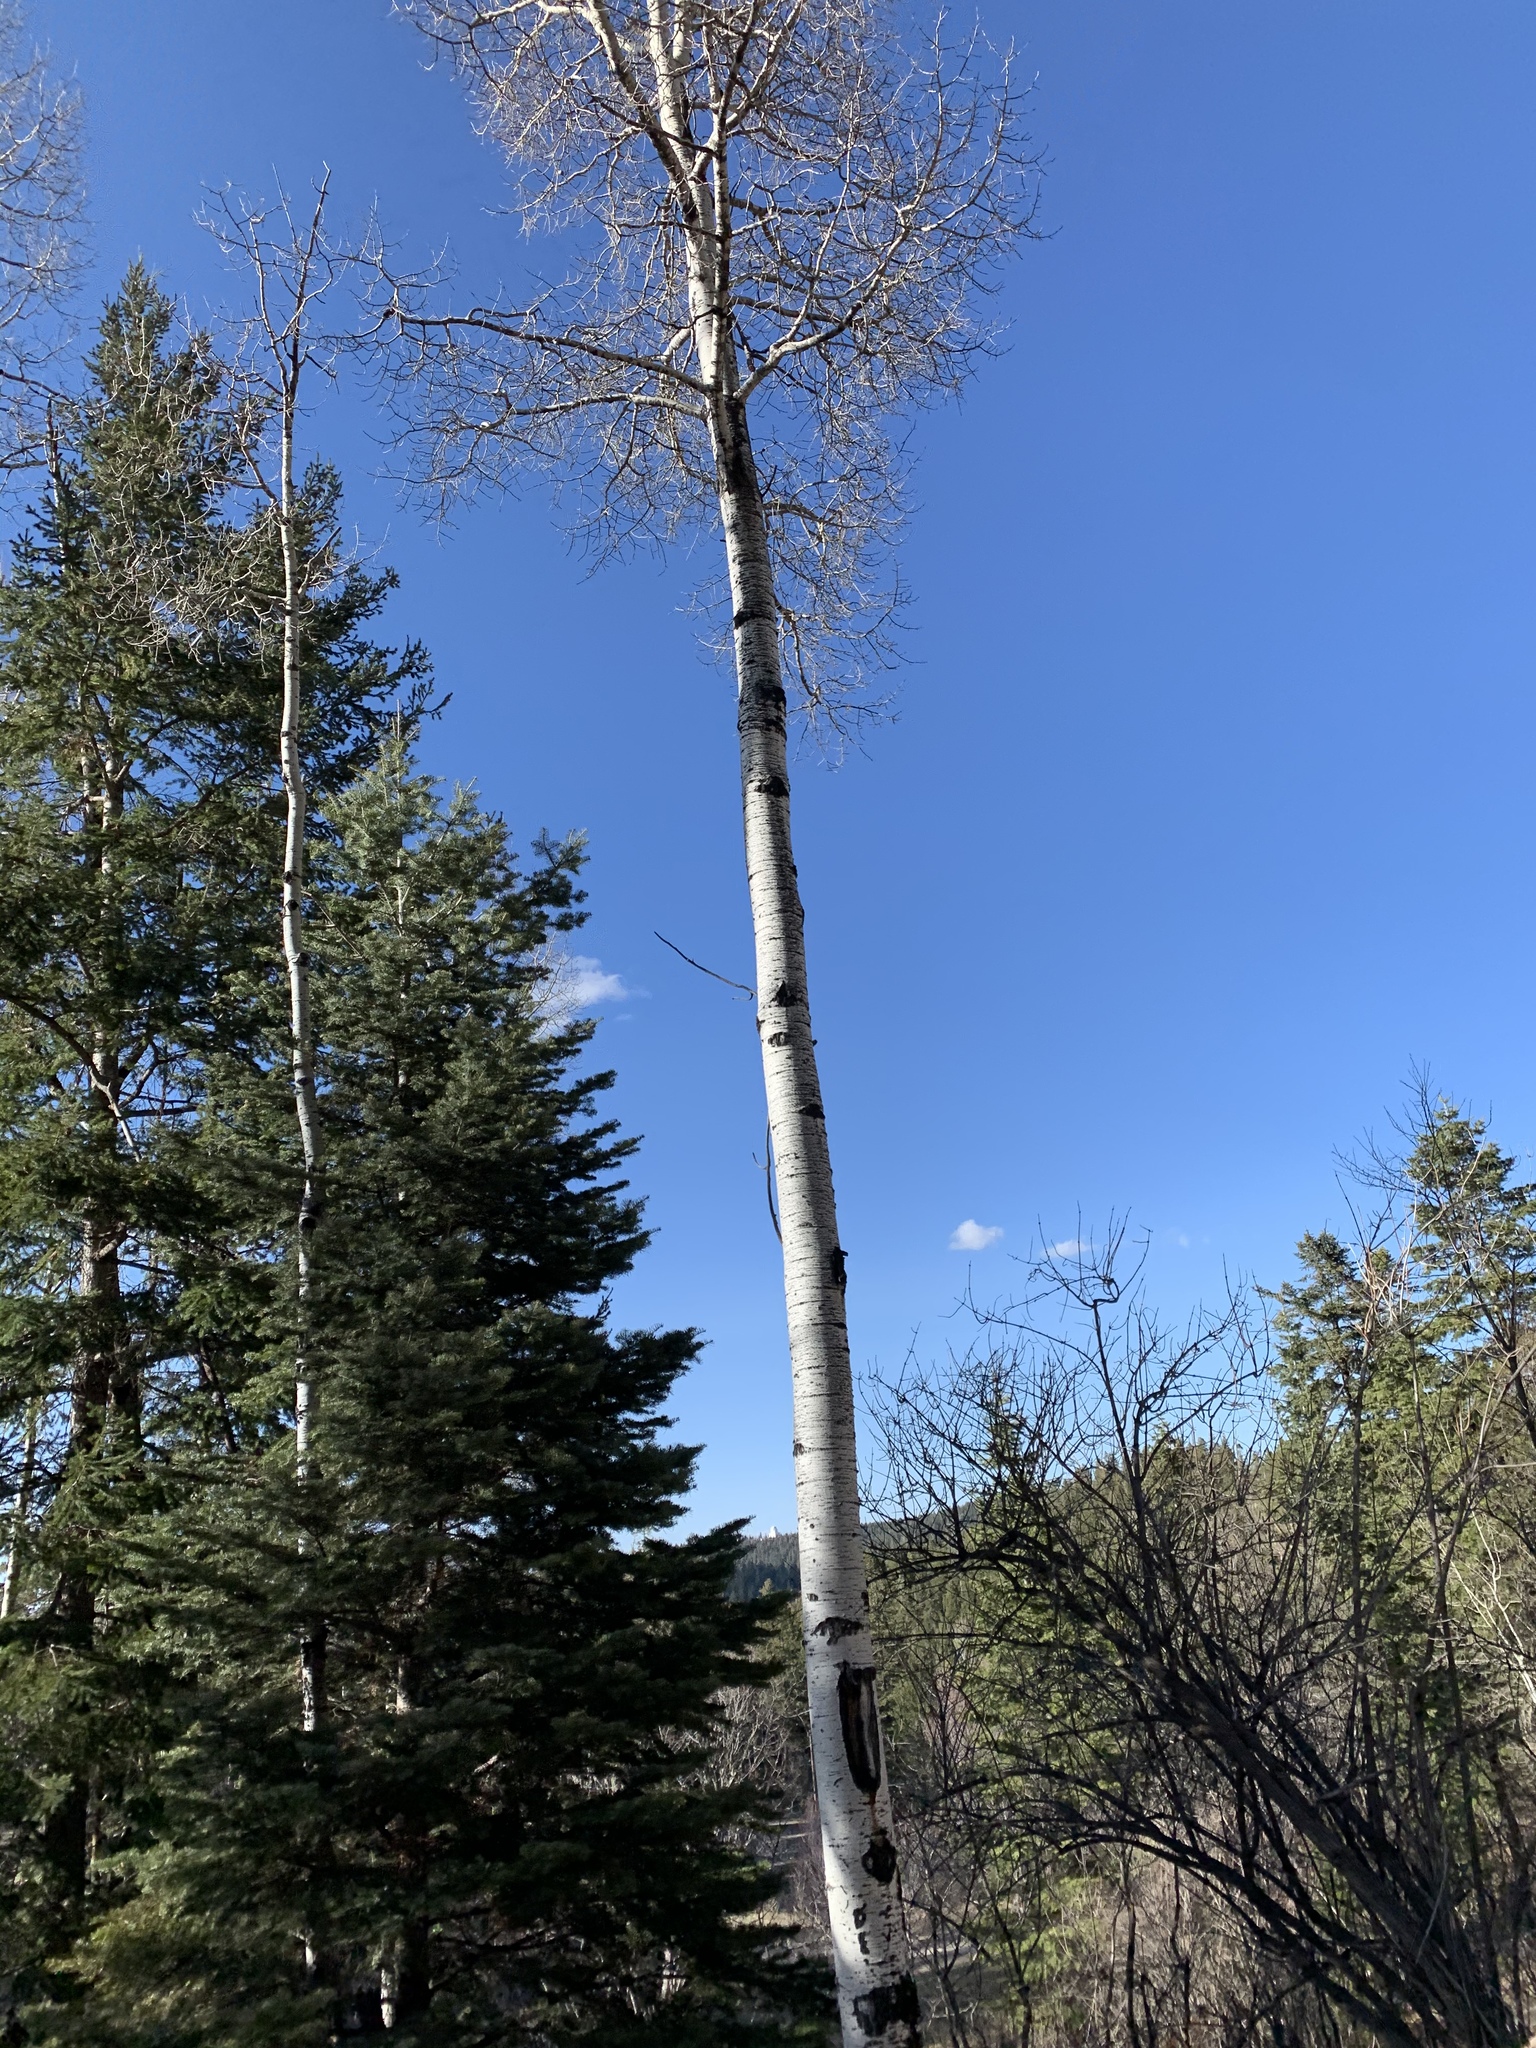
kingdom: Plantae
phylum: Tracheophyta
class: Magnoliopsida
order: Malpighiales
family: Salicaceae
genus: Populus
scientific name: Populus tremuloides
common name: Quaking aspen
